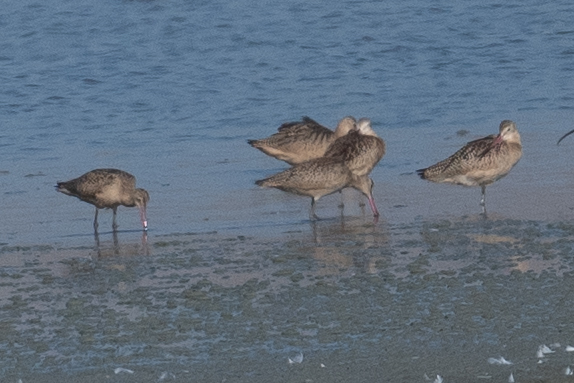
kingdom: Animalia
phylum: Chordata
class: Aves
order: Charadriiformes
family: Scolopacidae
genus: Limosa
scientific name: Limosa fedoa
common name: Marbled godwit
